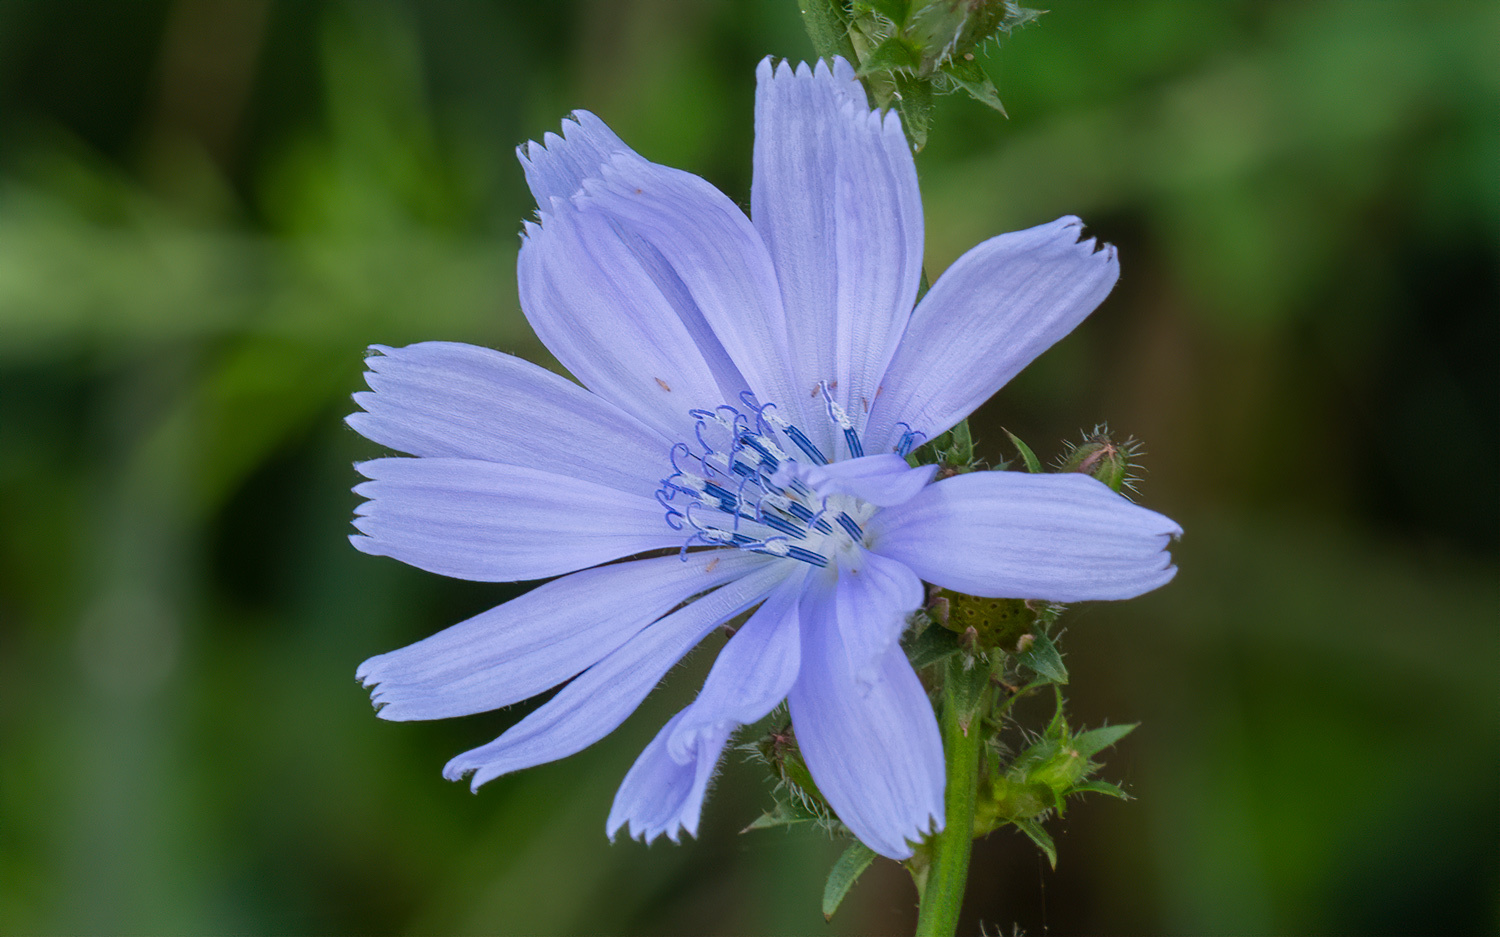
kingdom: Plantae
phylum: Tracheophyta
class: Magnoliopsida
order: Asterales
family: Asteraceae
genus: Cichorium
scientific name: Cichorium intybus
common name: Chicory
